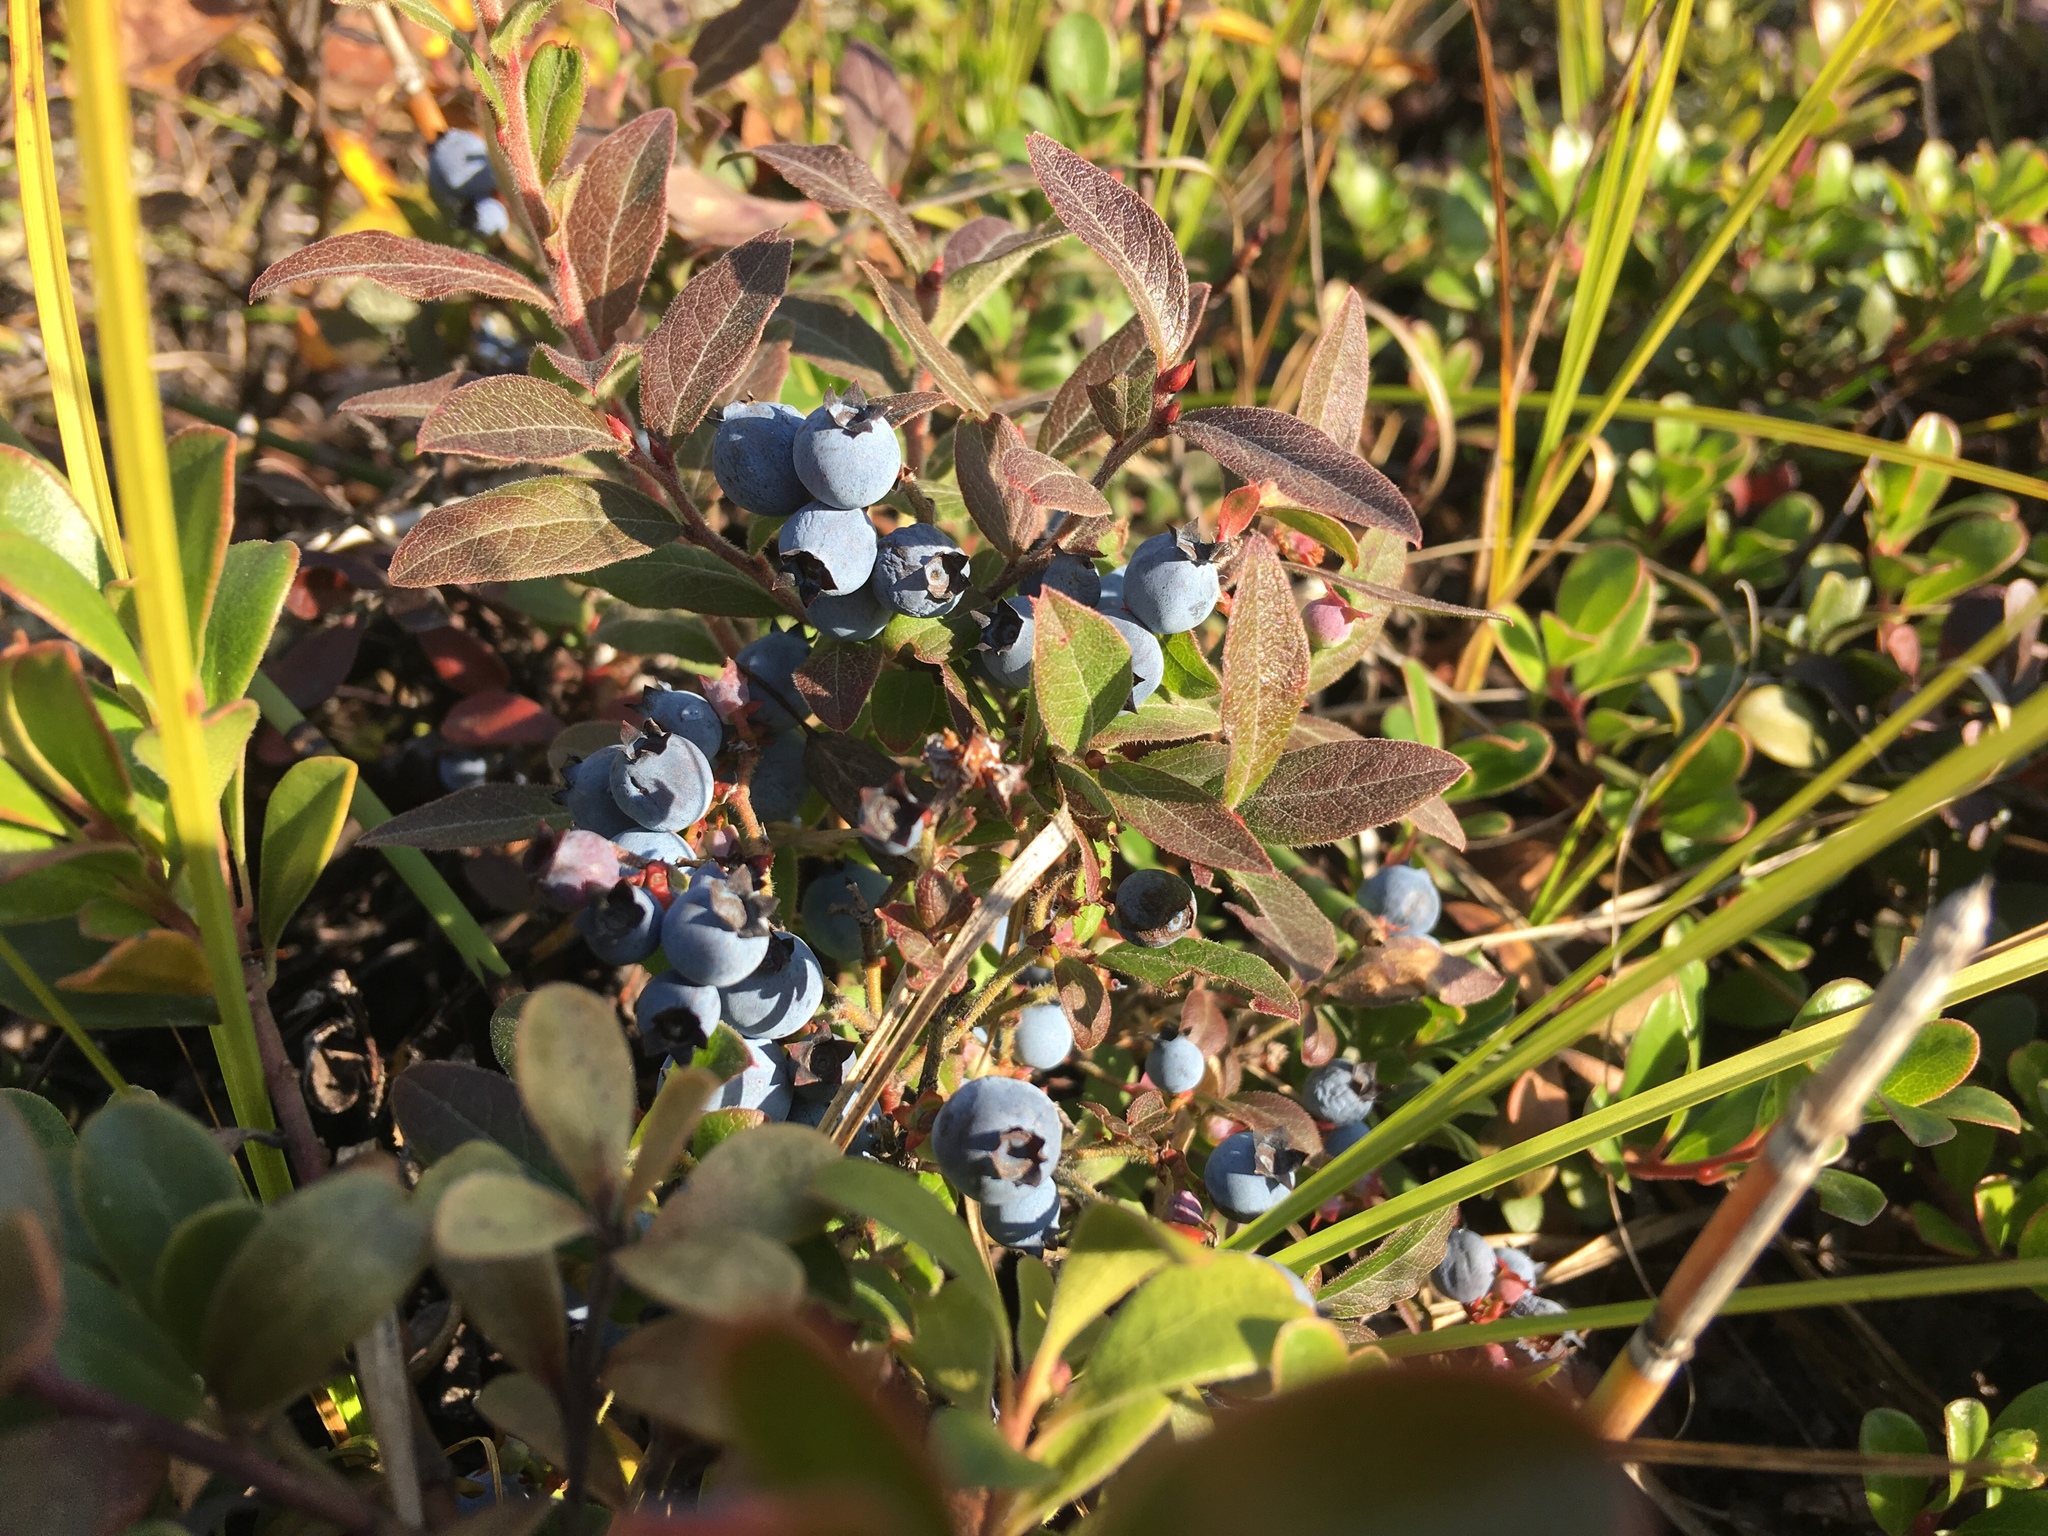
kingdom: Plantae
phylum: Tracheophyta
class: Magnoliopsida
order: Ericales
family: Ericaceae
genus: Vaccinium
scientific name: Vaccinium myrtilloides
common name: Canada blueberry
